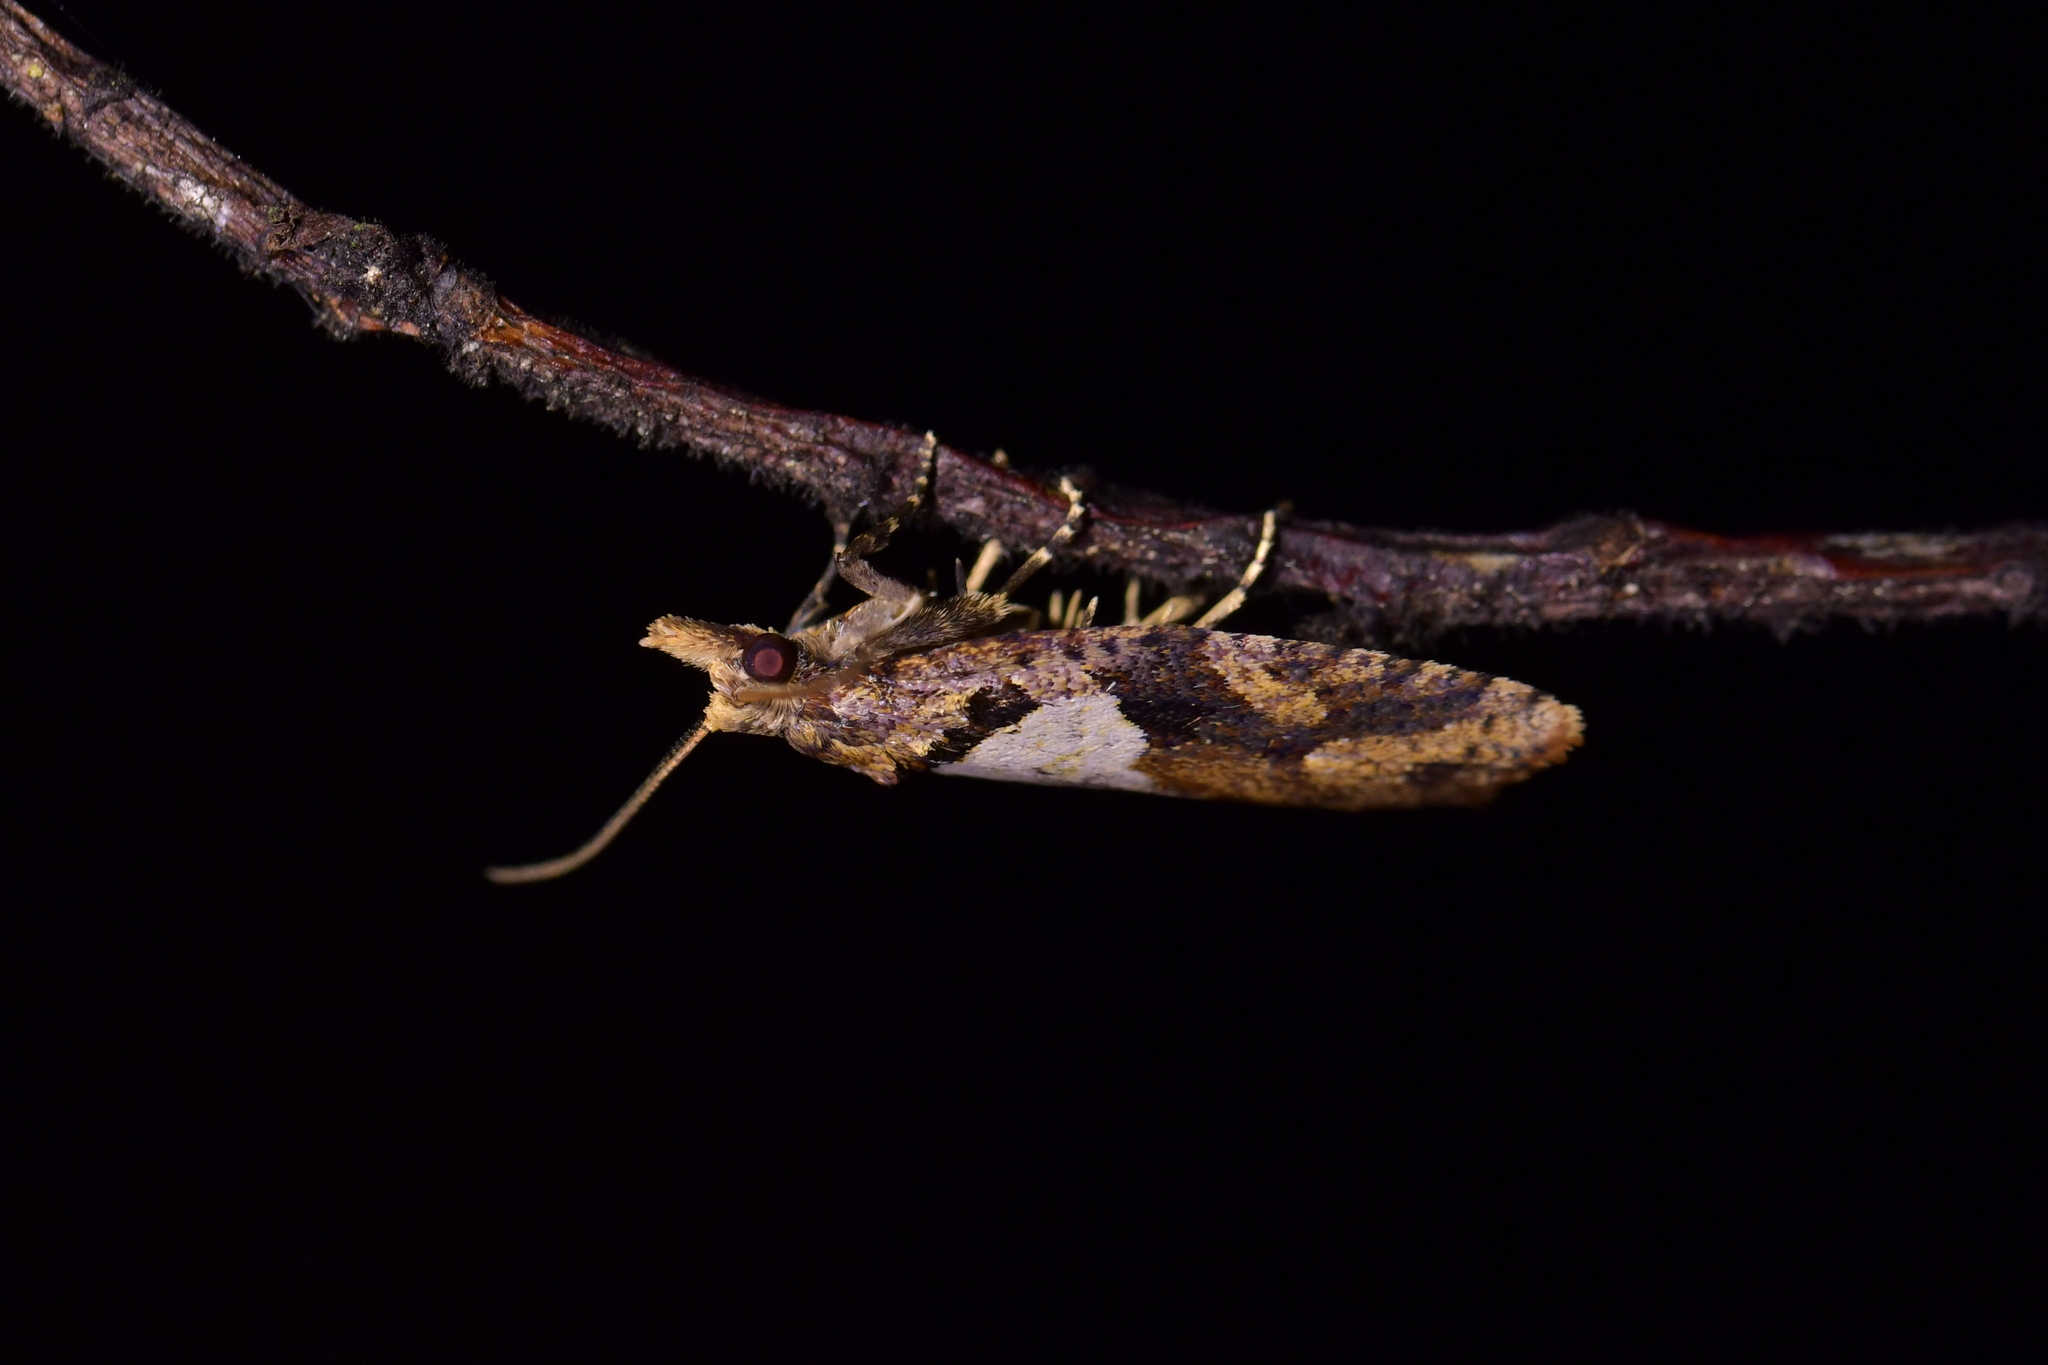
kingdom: Animalia
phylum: Arthropoda
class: Insecta
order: Lepidoptera
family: Tortricidae
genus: Ctenopseustis
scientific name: Ctenopseustis obliquana
